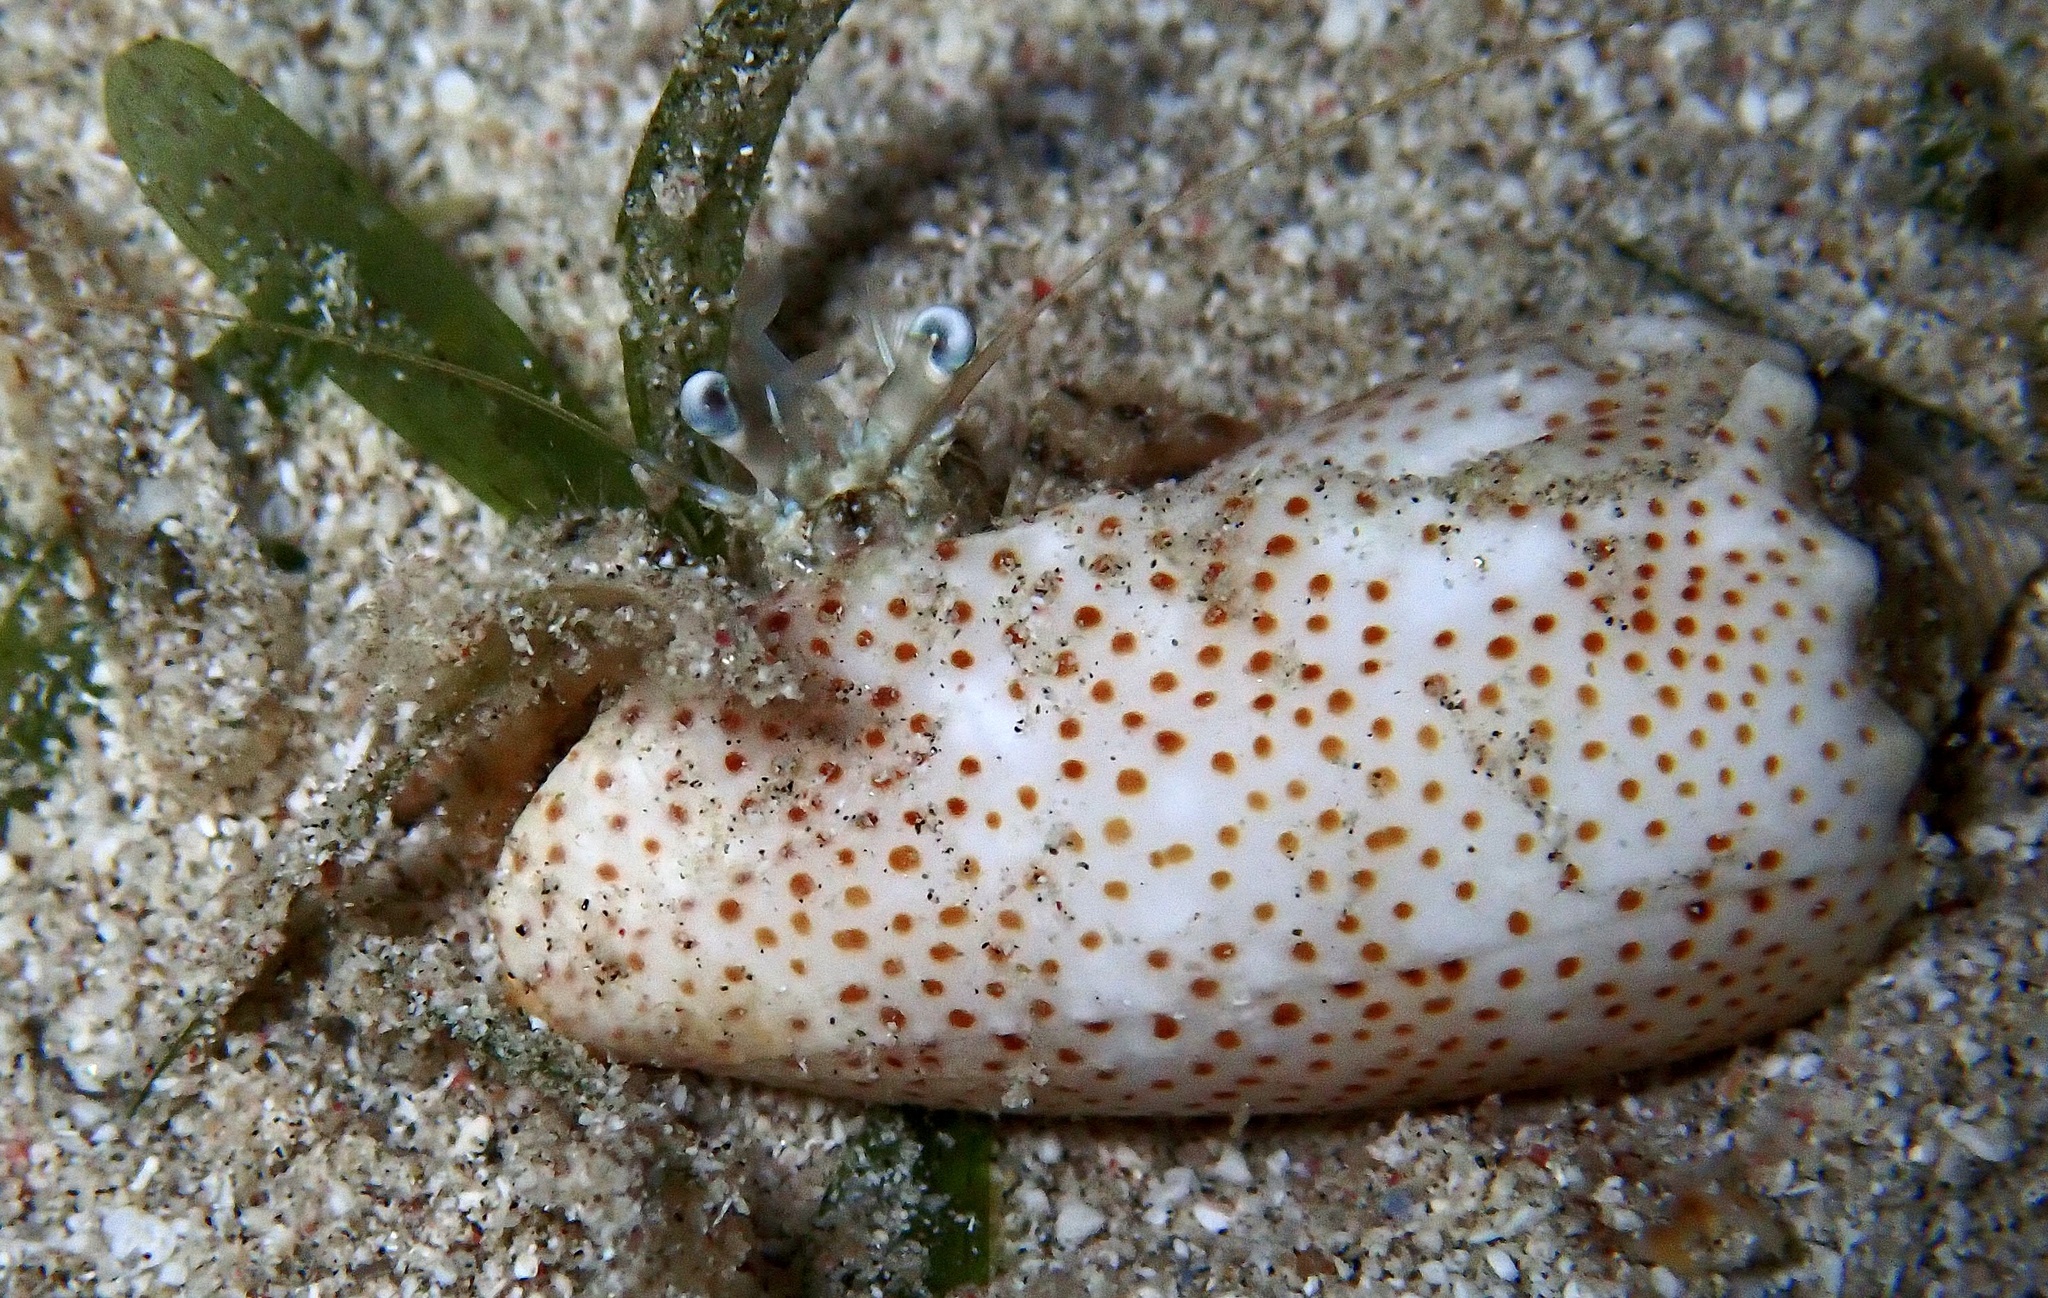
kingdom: Animalia
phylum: Arthropoda
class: Malacostraca
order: Decapoda
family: Diogenidae
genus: Dardanus
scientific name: Dardanus woodmasoni
